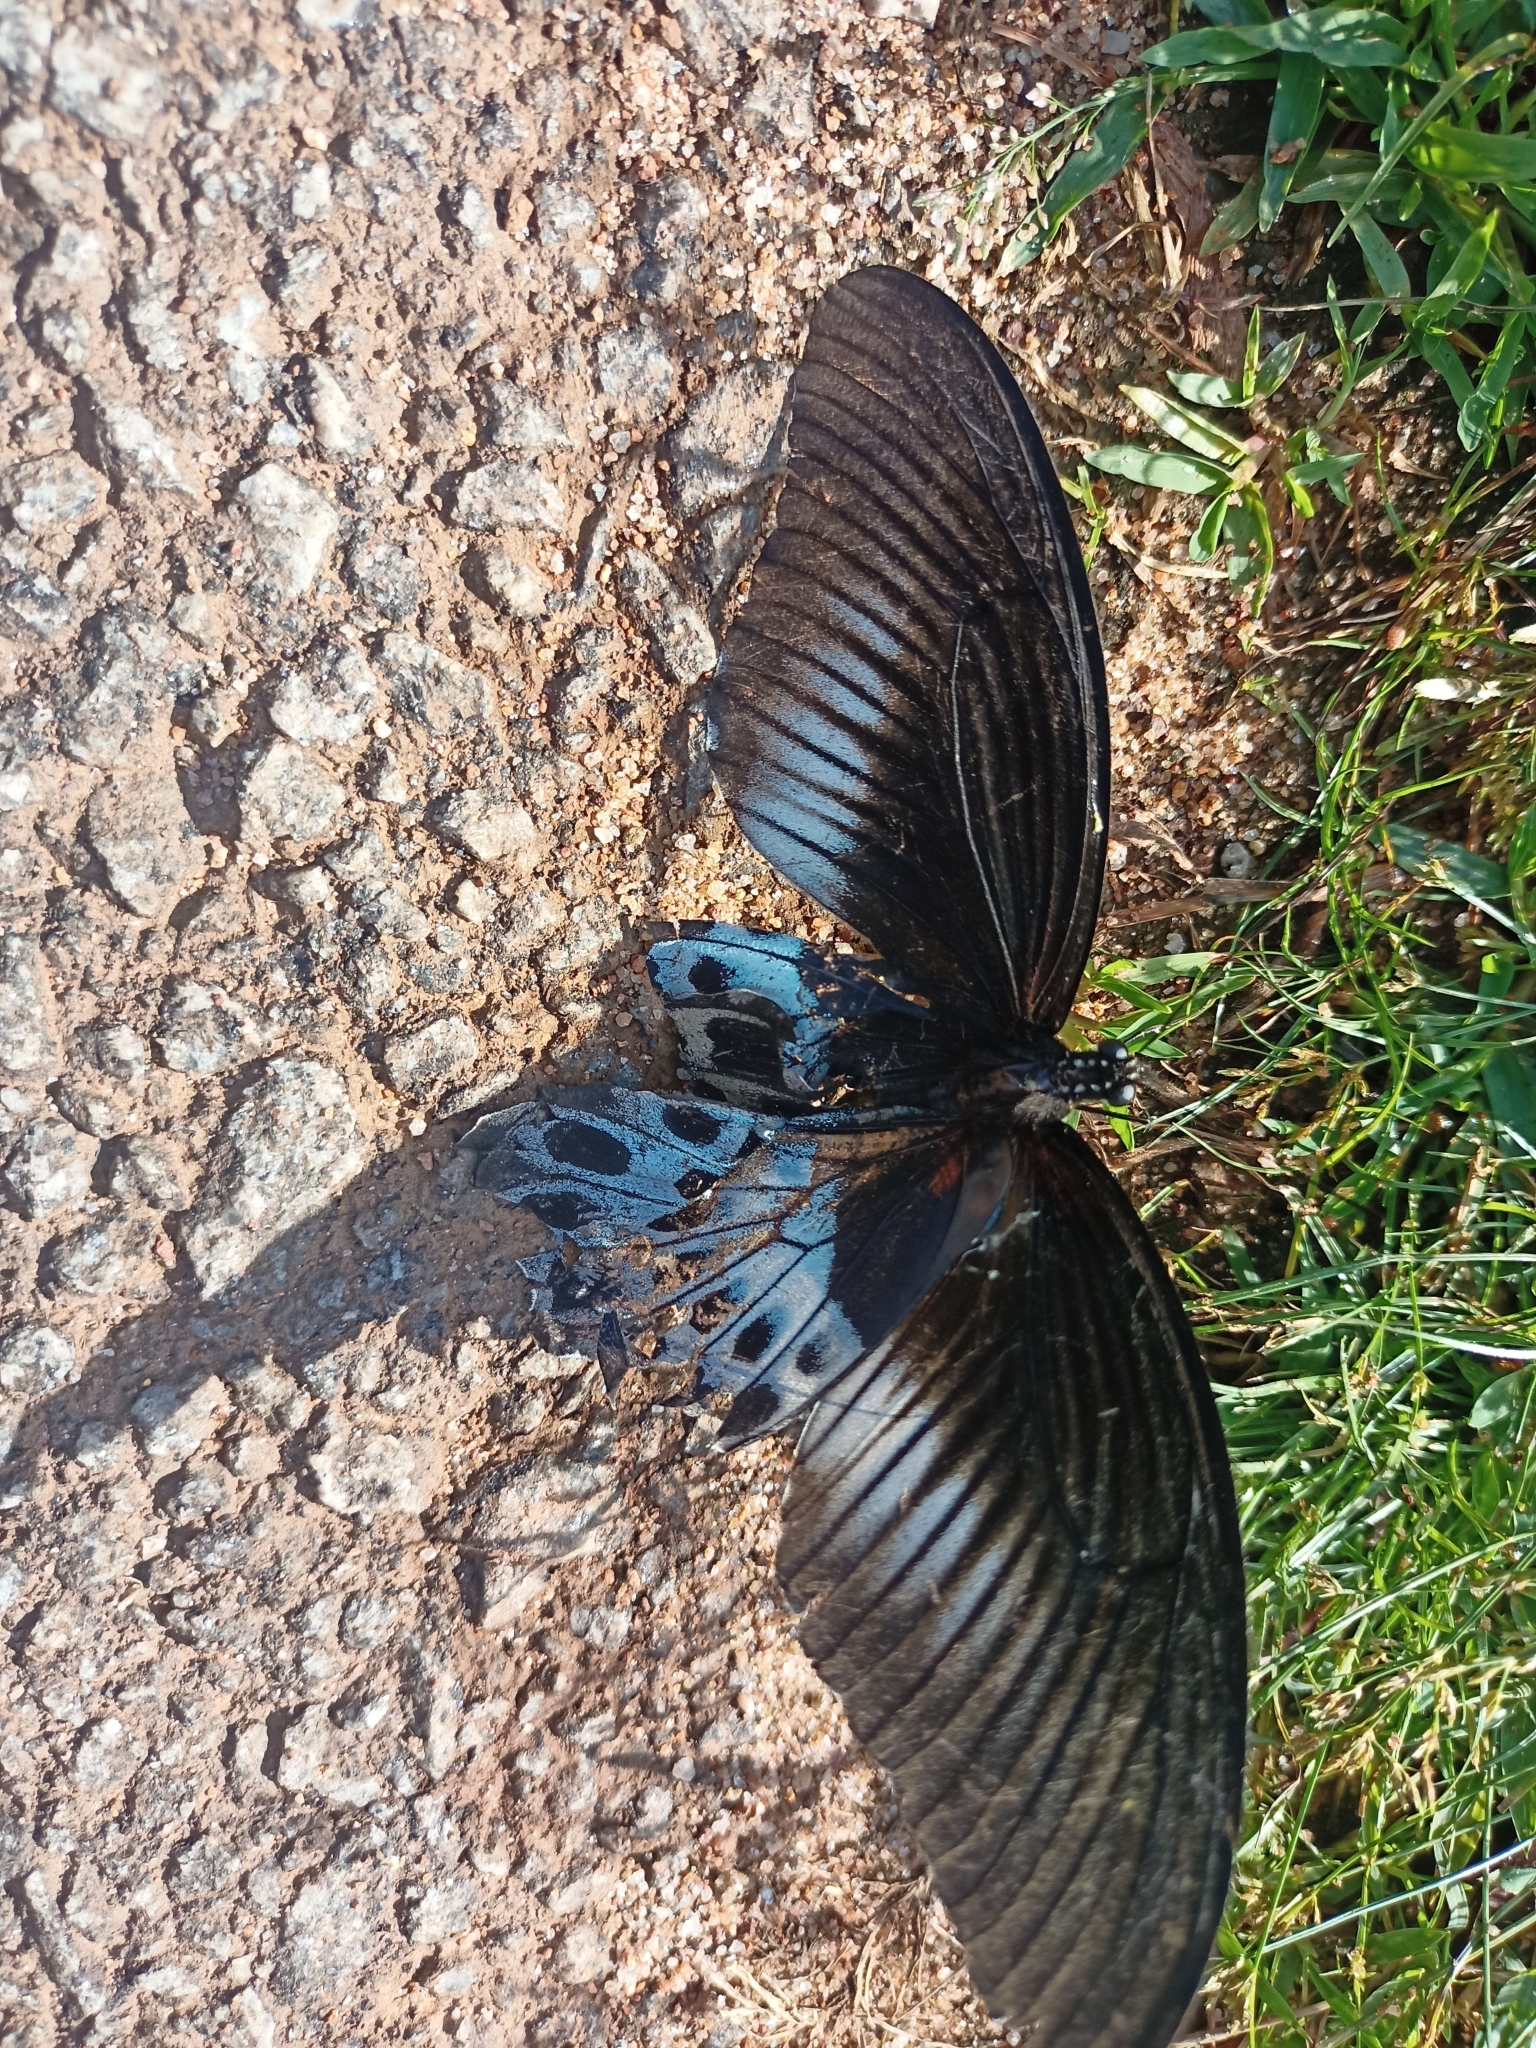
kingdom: Animalia
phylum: Arthropoda
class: Insecta
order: Lepidoptera
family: Papilionidae
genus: Papilio
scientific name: Papilio memnon
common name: Great mormon
